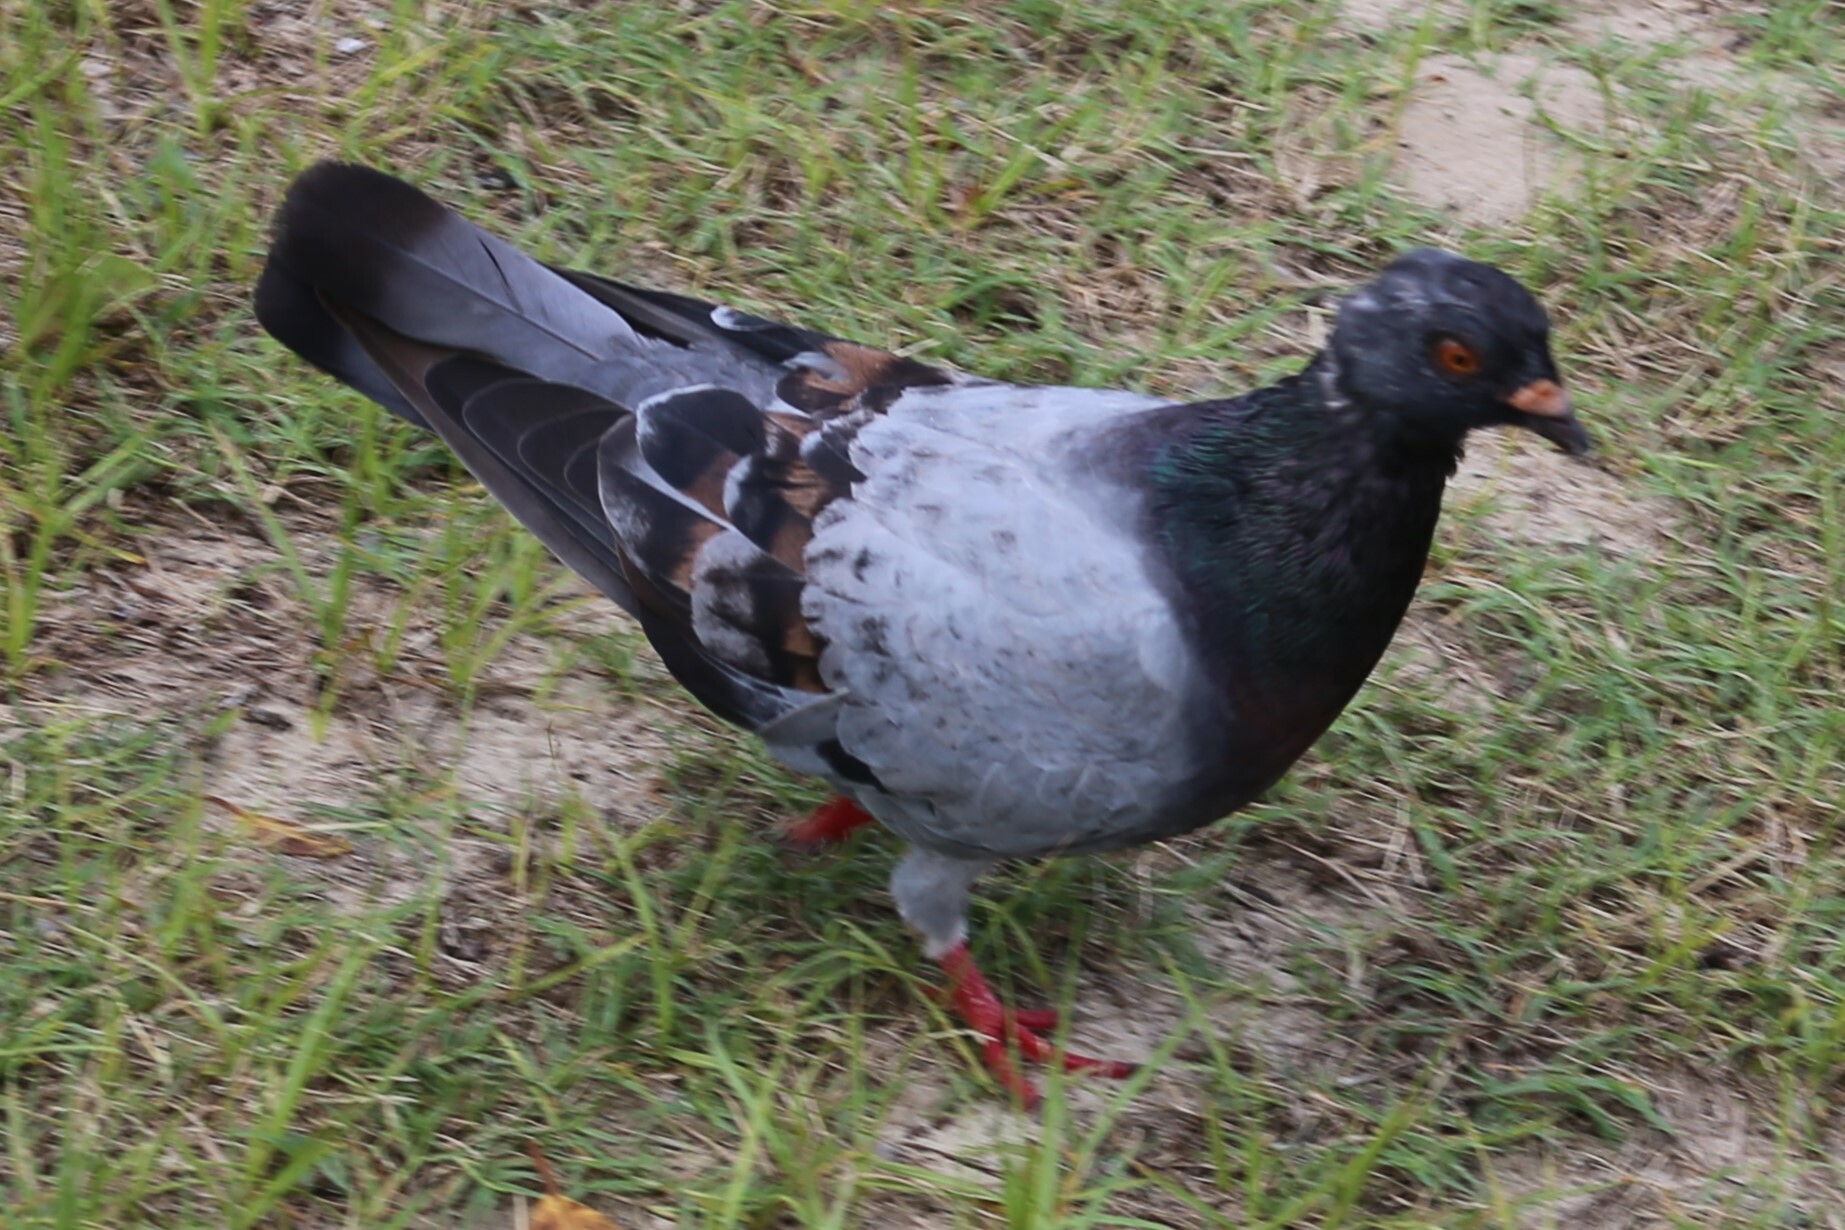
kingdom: Animalia
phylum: Chordata
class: Aves
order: Columbiformes
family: Columbidae
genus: Columba
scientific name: Columba livia
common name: Rock pigeon
